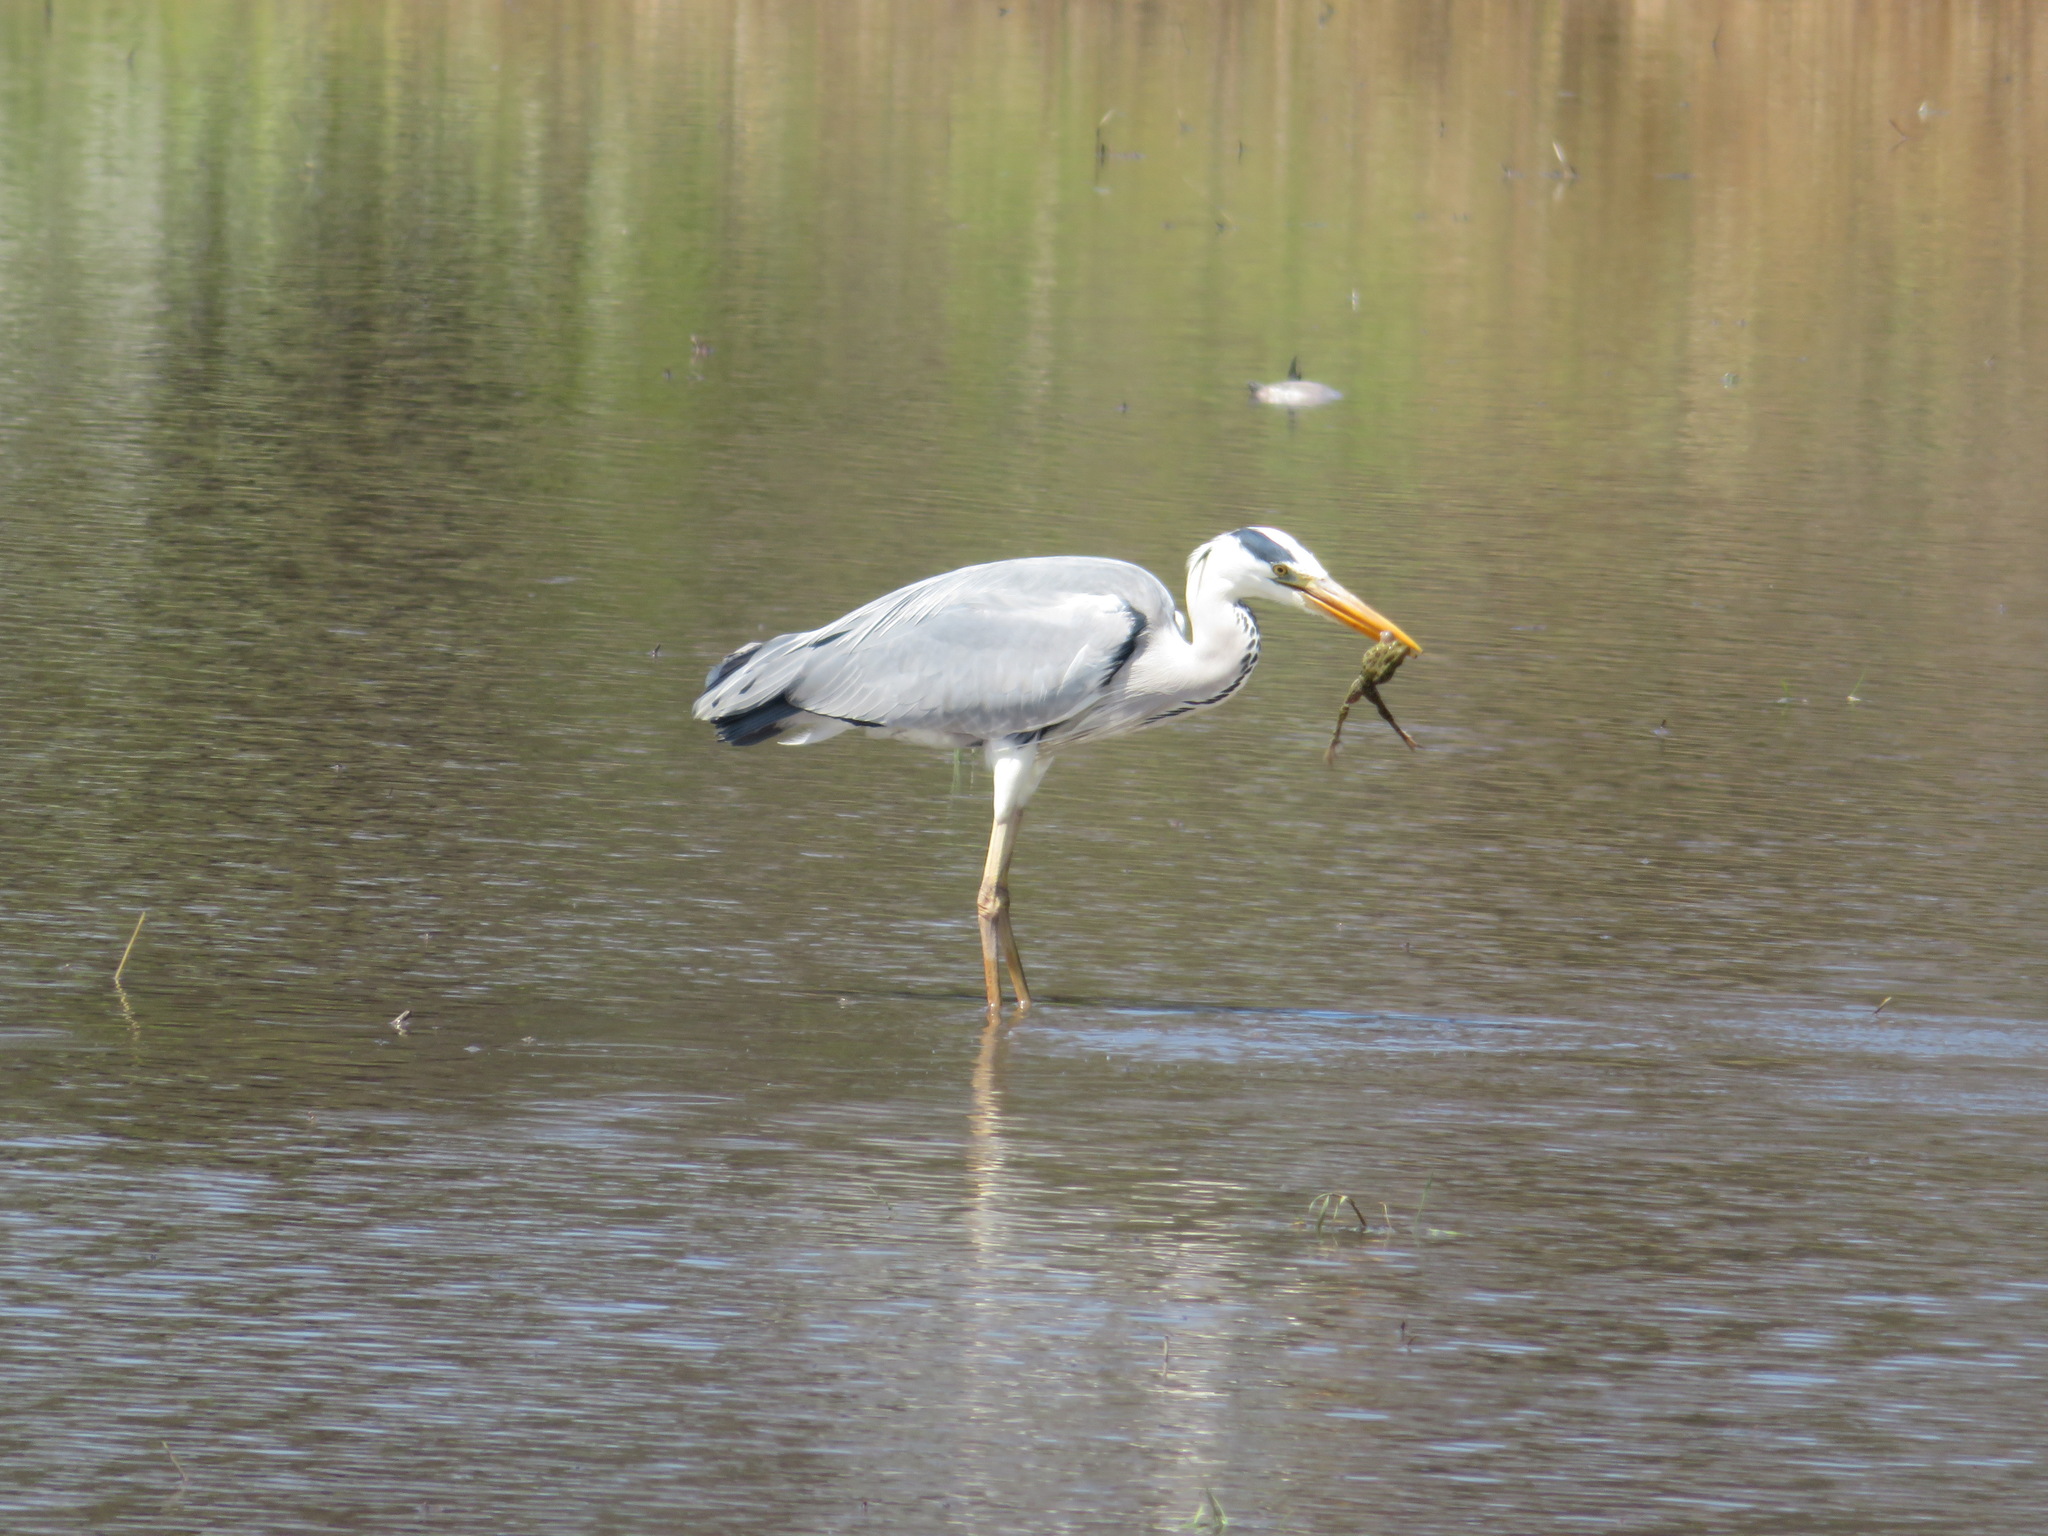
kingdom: Animalia
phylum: Chordata
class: Aves
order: Pelecaniformes
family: Ardeidae
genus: Ardea
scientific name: Ardea cinerea
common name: Grey heron
